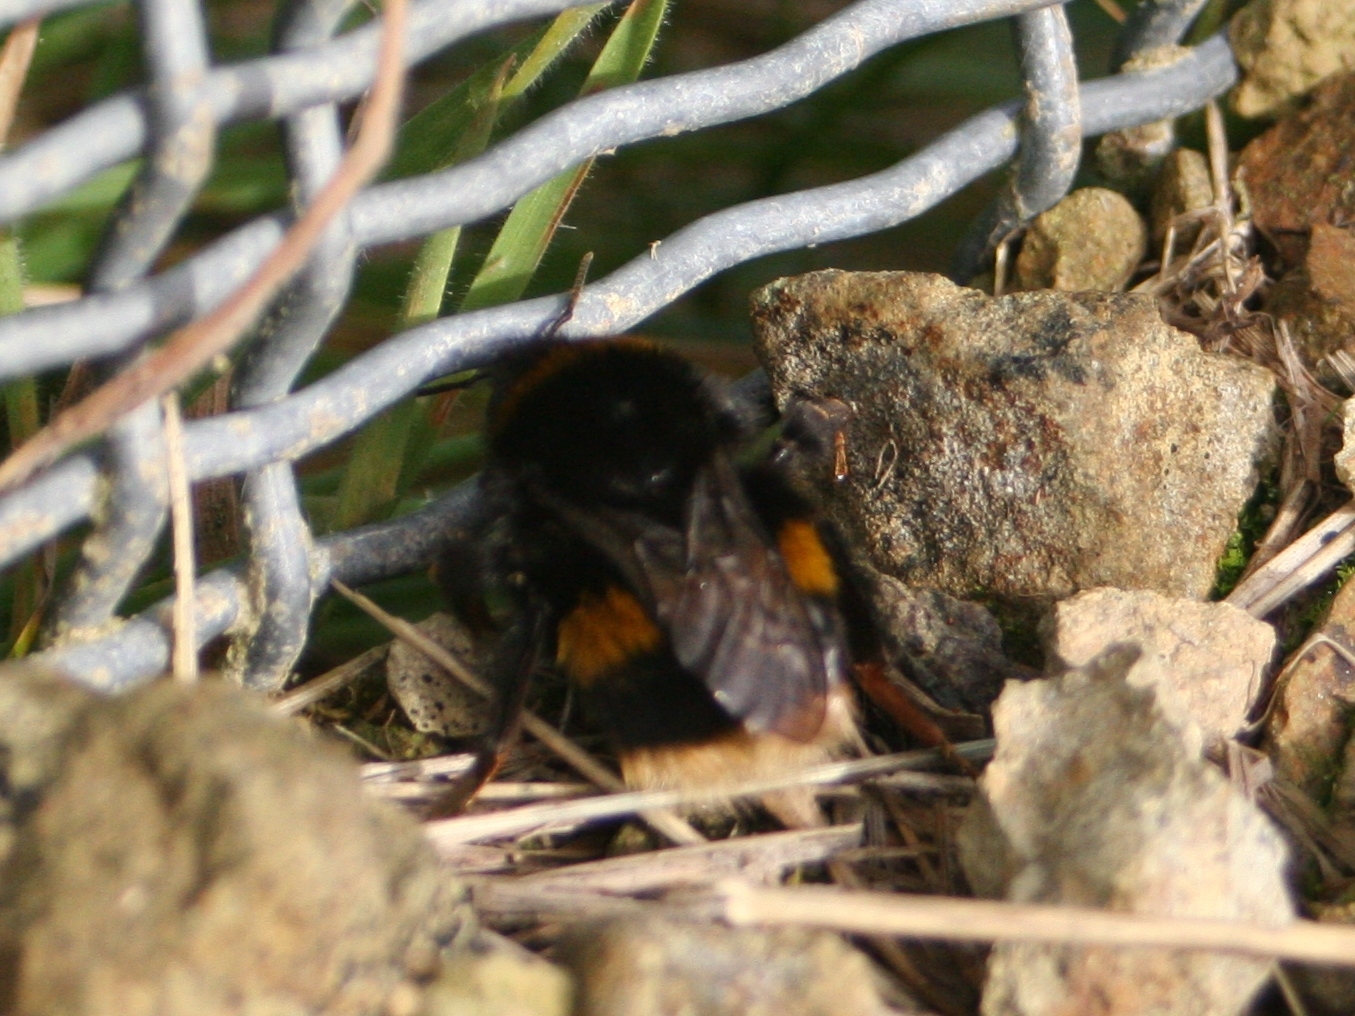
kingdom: Animalia
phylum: Arthropoda
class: Insecta
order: Hymenoptera
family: Apidae
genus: Bombus
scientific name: Bombus terrestris
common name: Buff-tailed bumblebee
